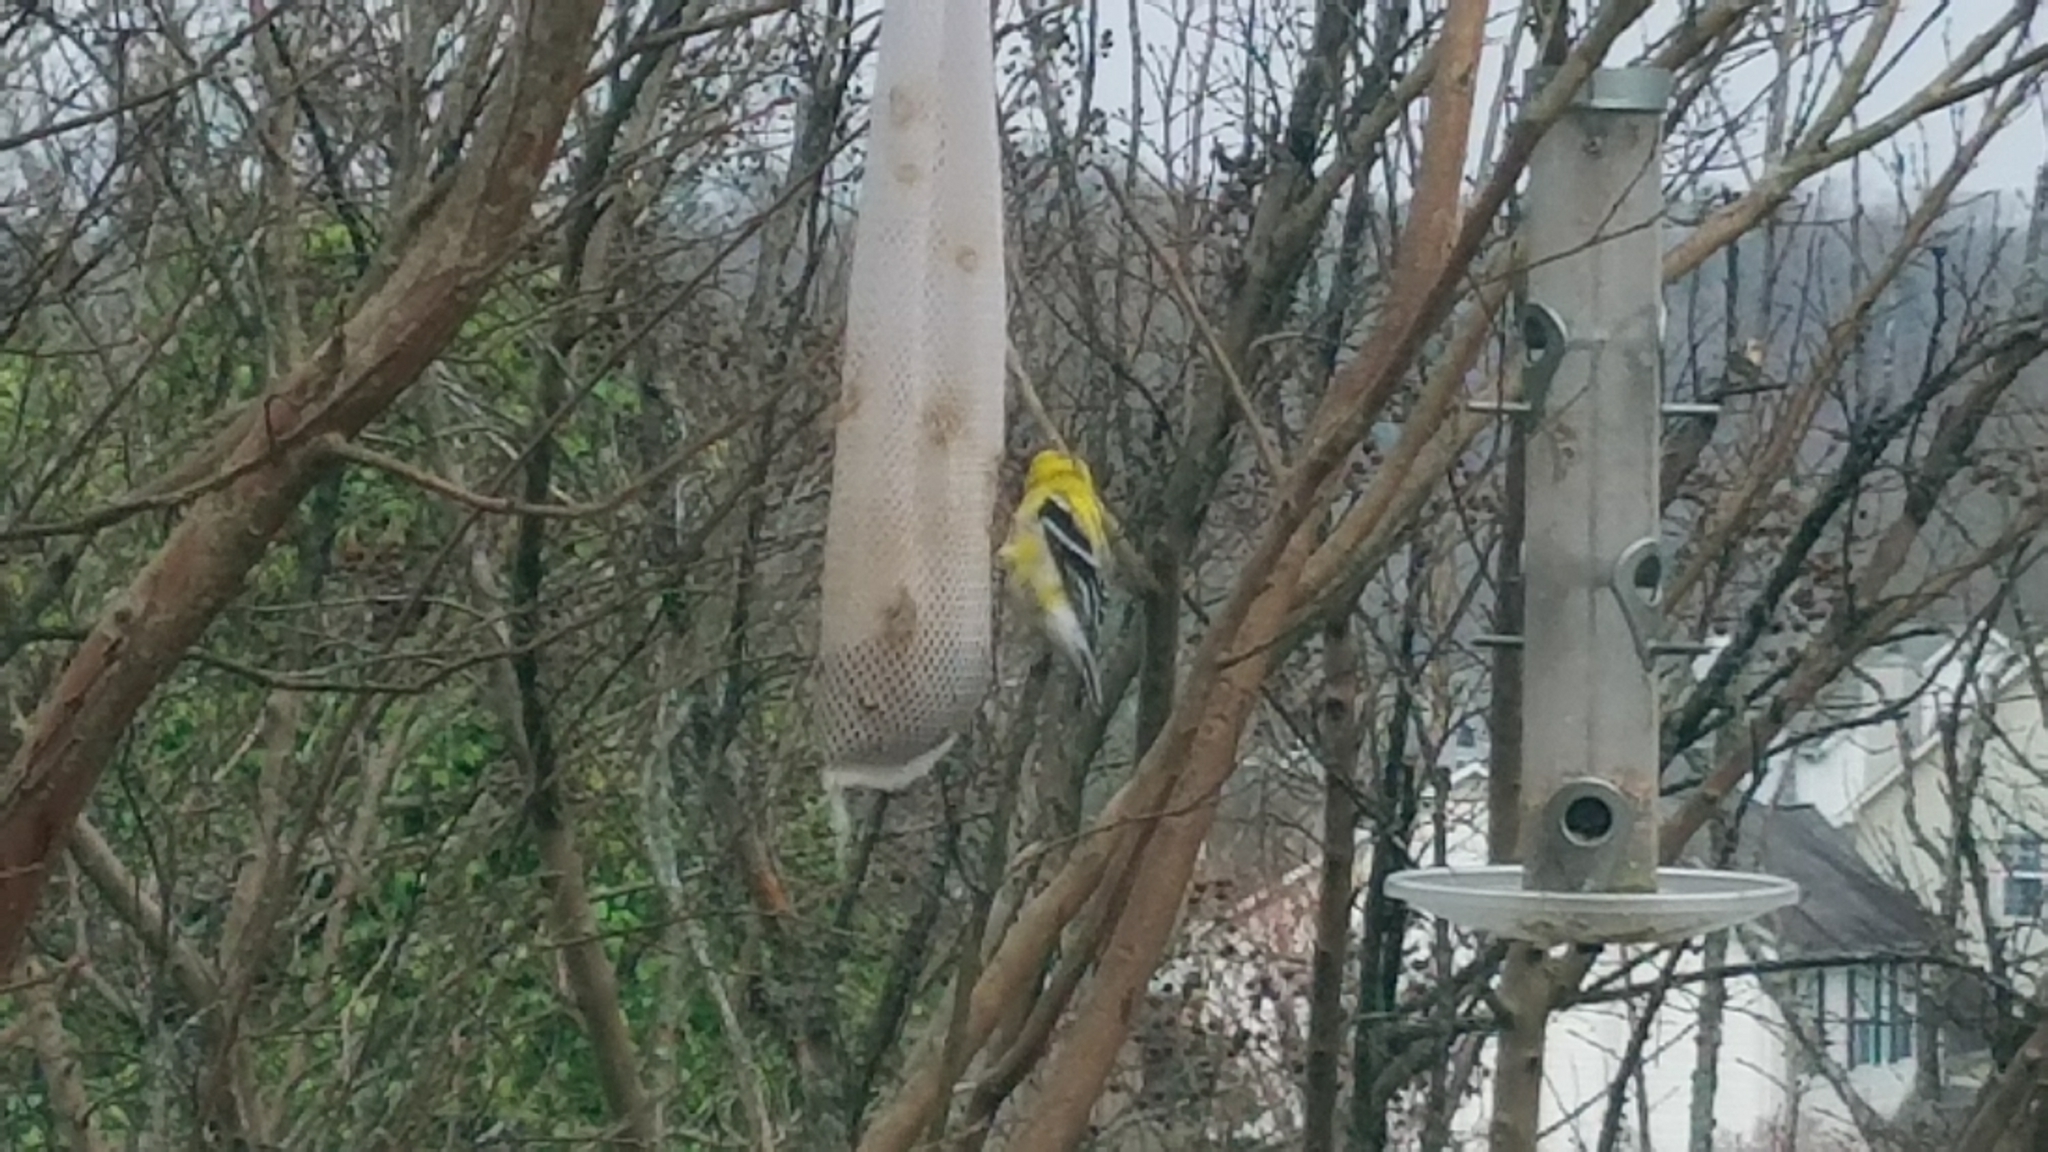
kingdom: Animalia
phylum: Chordata
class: Aves
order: Passeriformes
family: Fringillidae
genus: Spinus
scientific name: Spinus tristis
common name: American goldfinch
